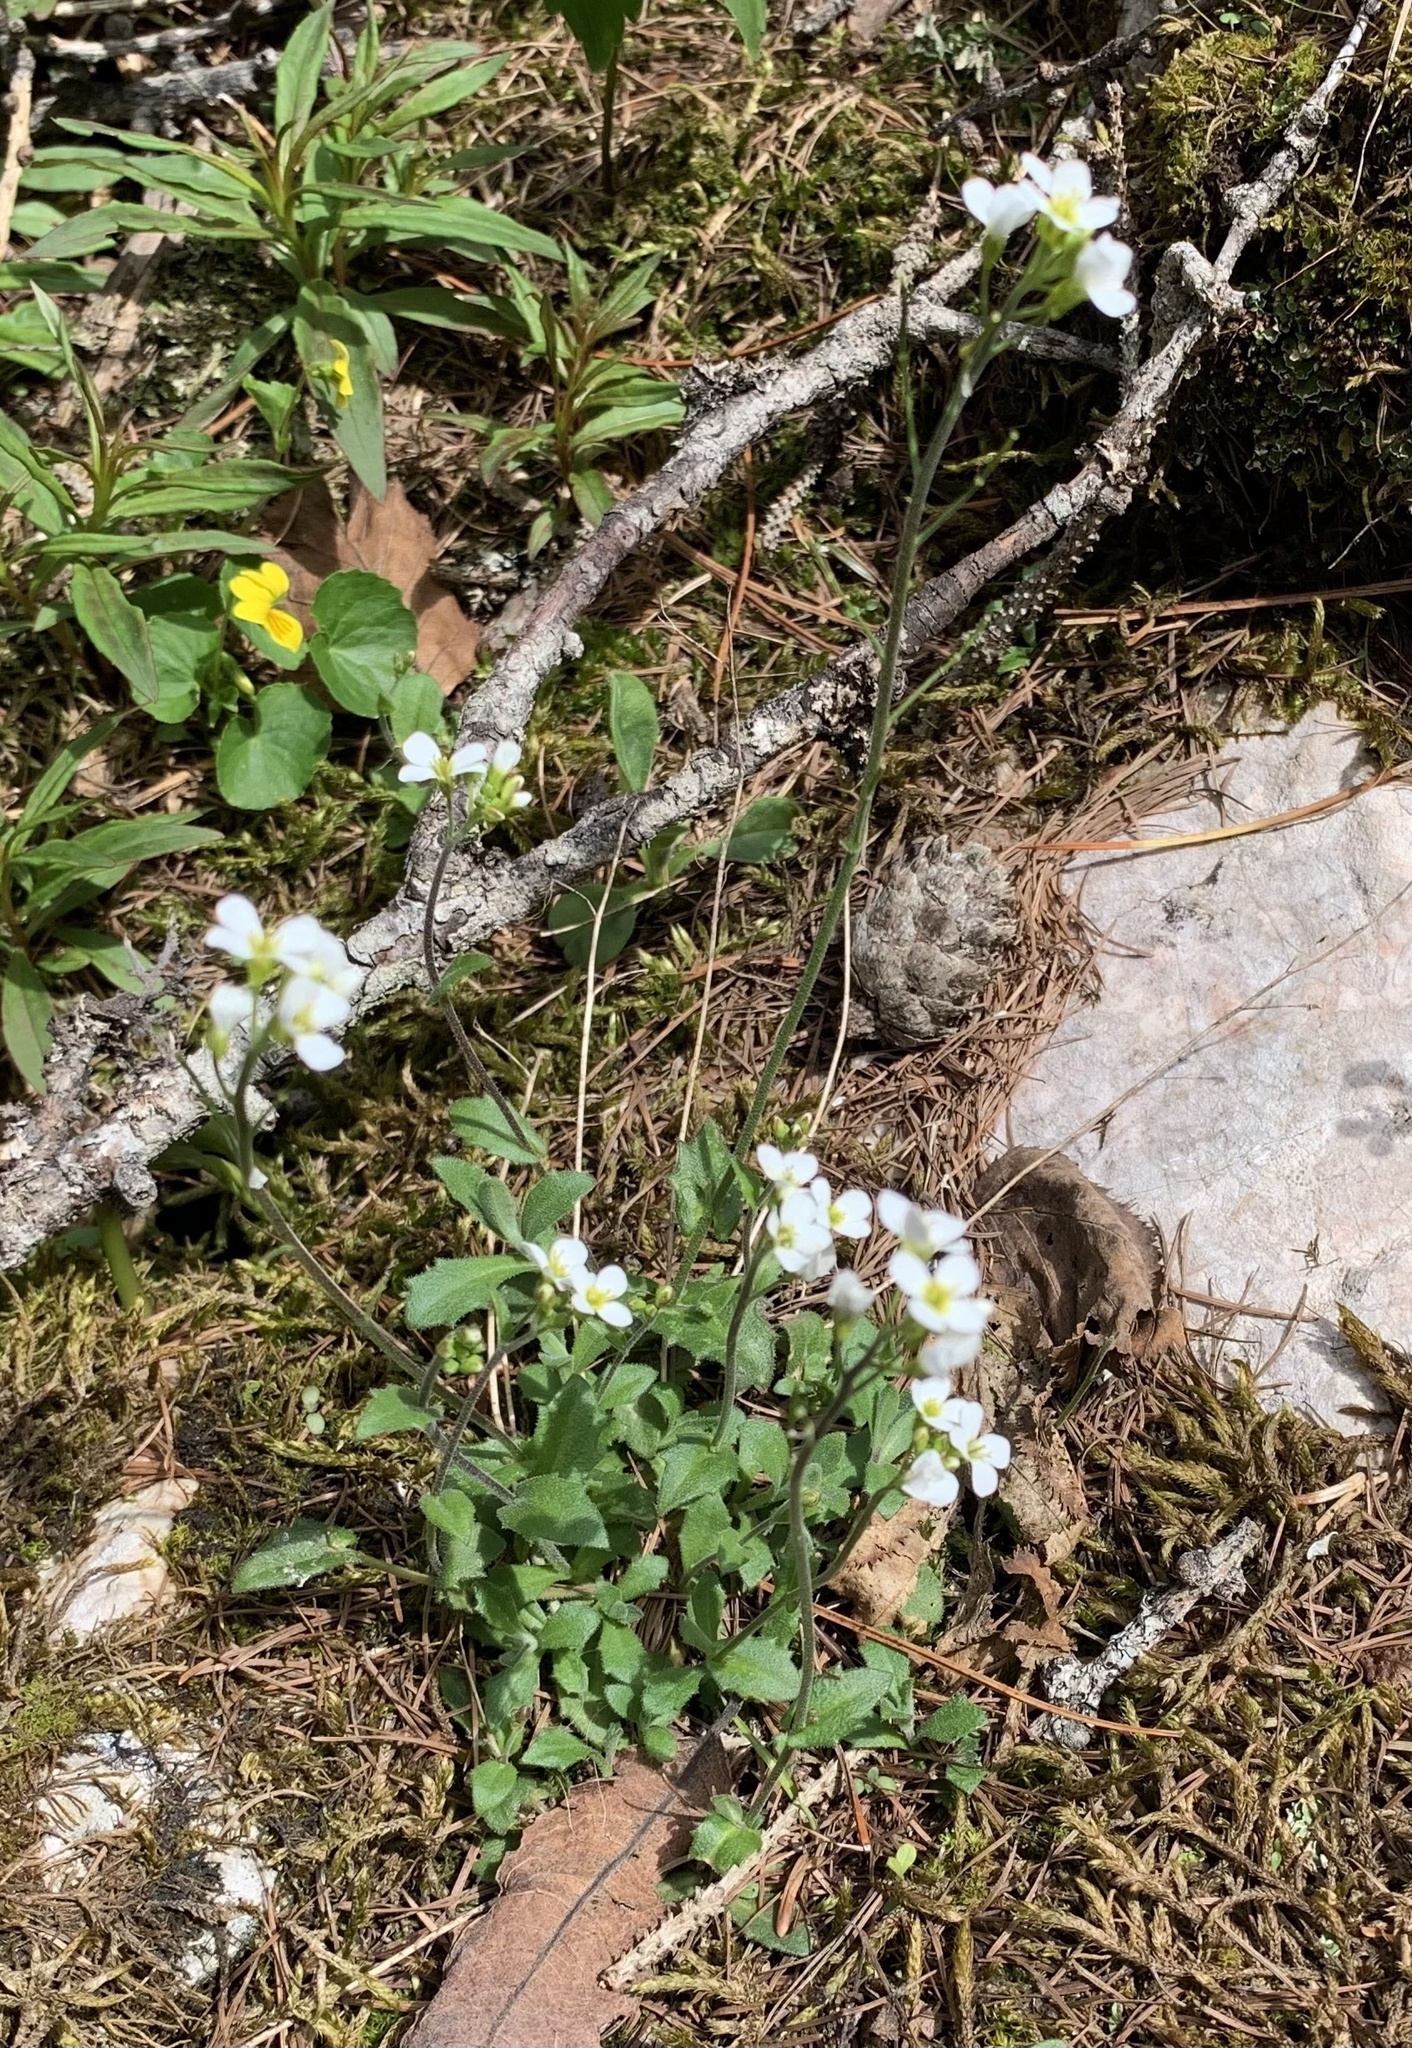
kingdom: Plantae
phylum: Tracheophyta
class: Magnoliopsida
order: Brassicales
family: Brassicaceae
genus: Arabis
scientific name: Arabis alpina
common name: Alpine rock-cress
